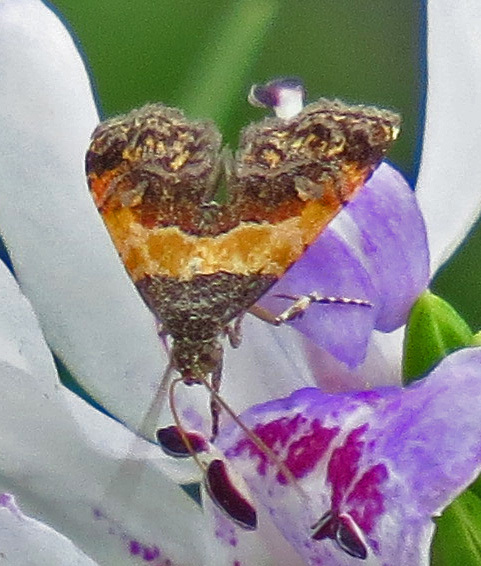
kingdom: Animalia
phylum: Arthropoda
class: Insecta
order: Lepidoptera
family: Noctuidae
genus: Tripudia
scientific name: Tripudia flavofasciata
